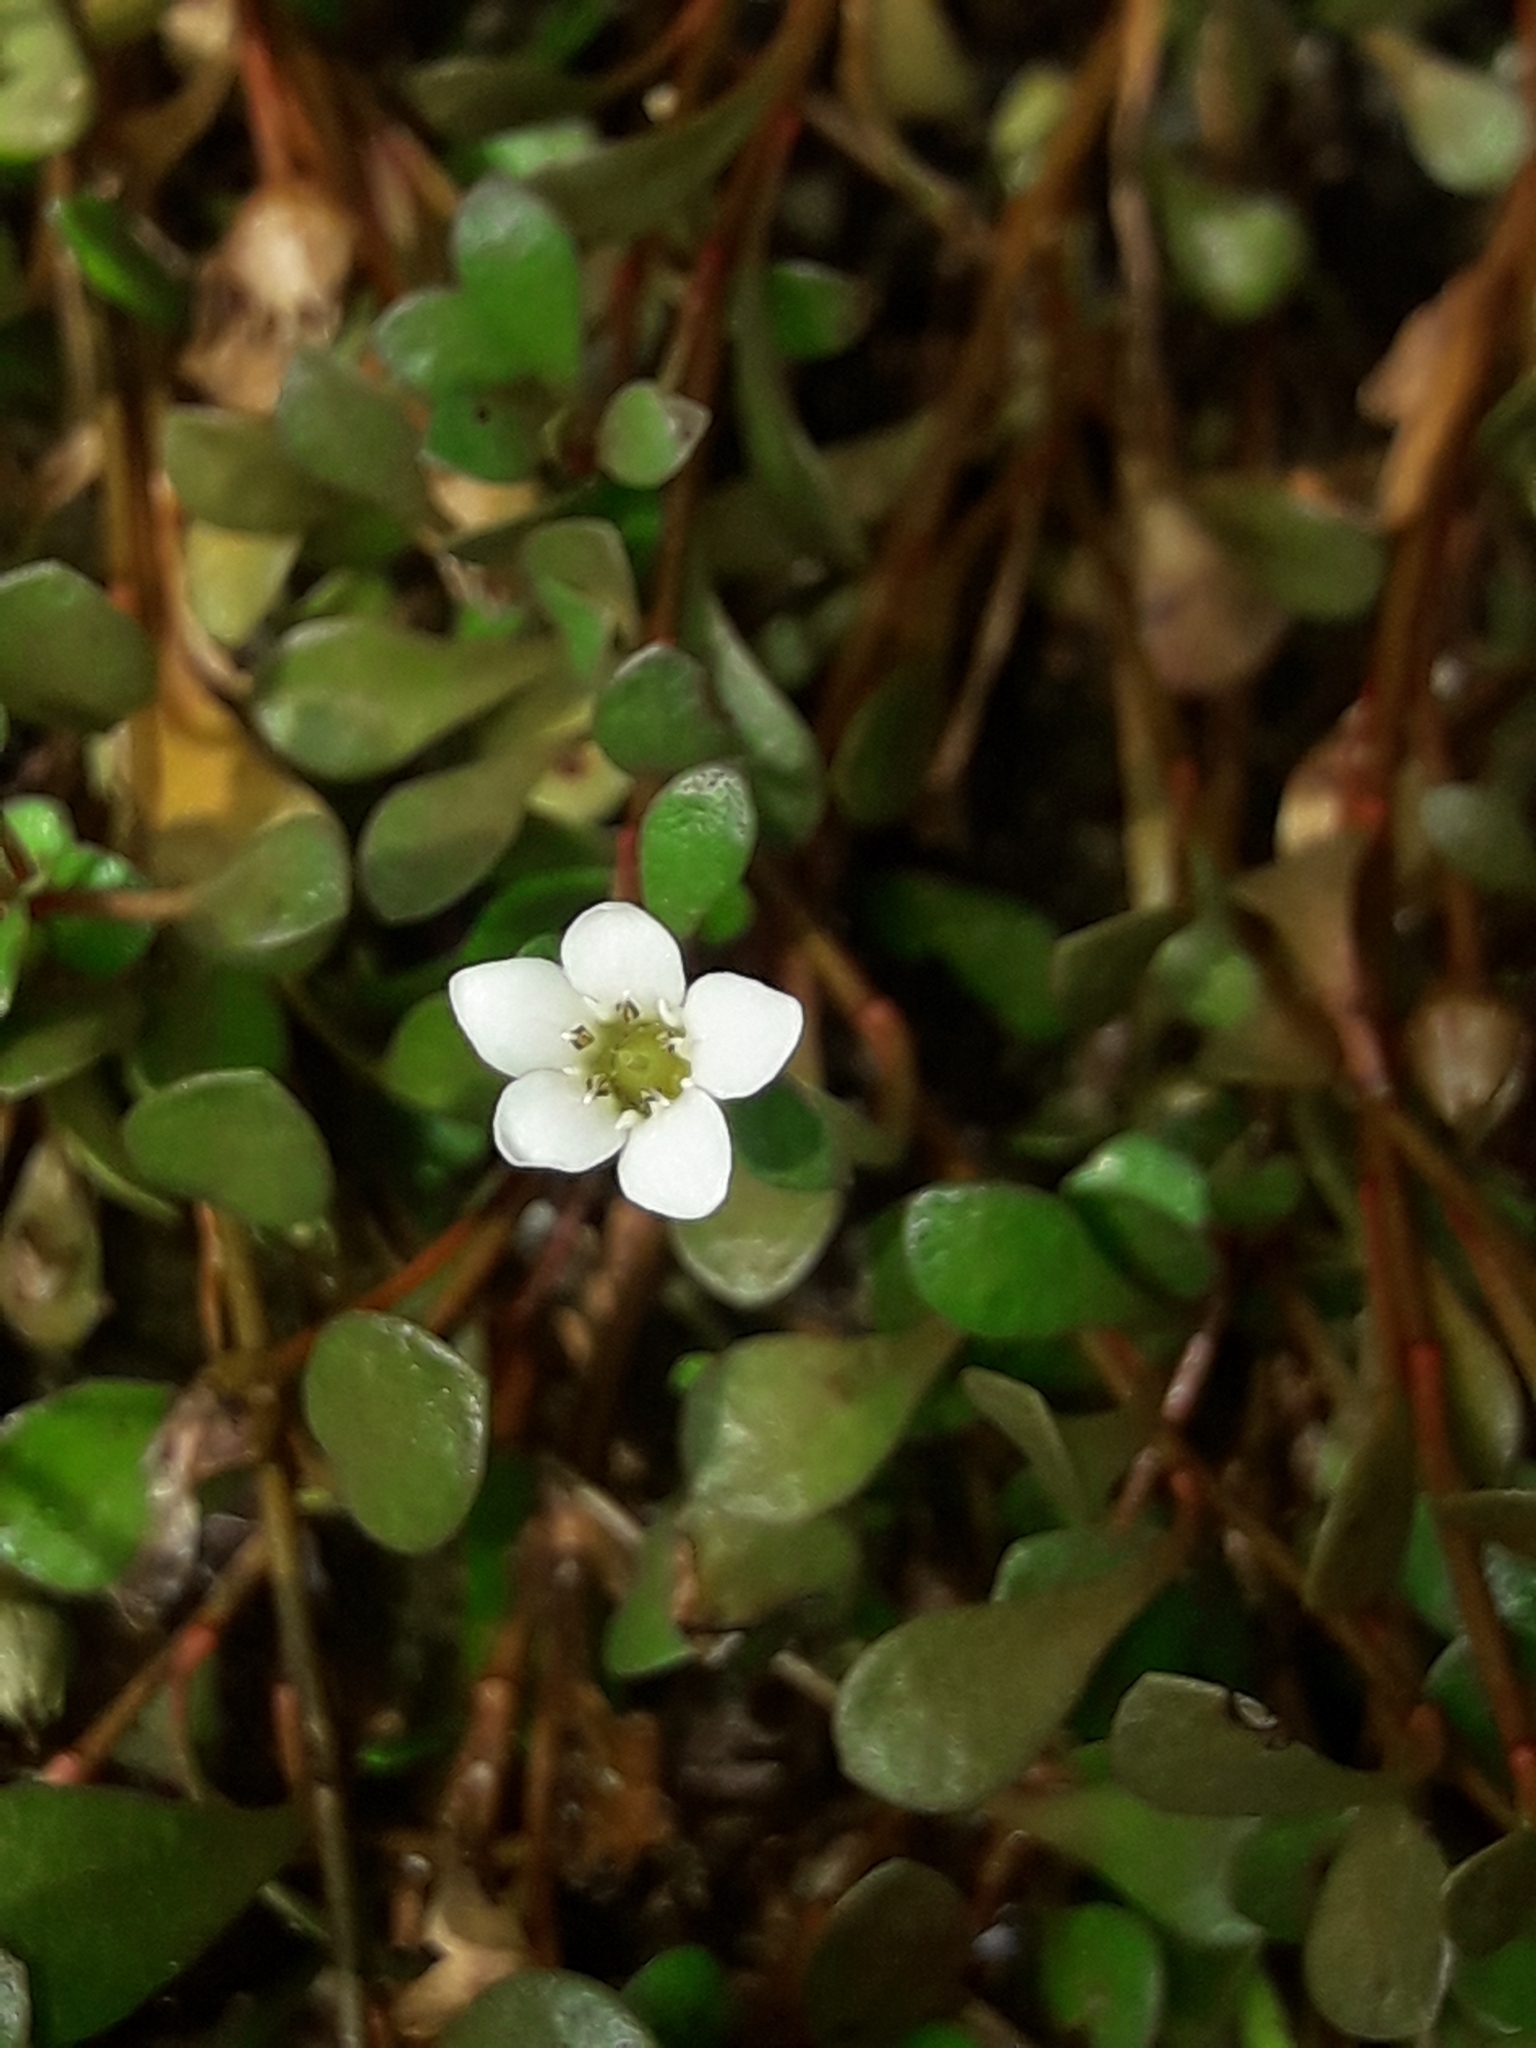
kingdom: Plantae
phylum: Tracheophyta
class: Magnoliopsida
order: Ericales
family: Primulaceae
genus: Samolus
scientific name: Samolus repens
